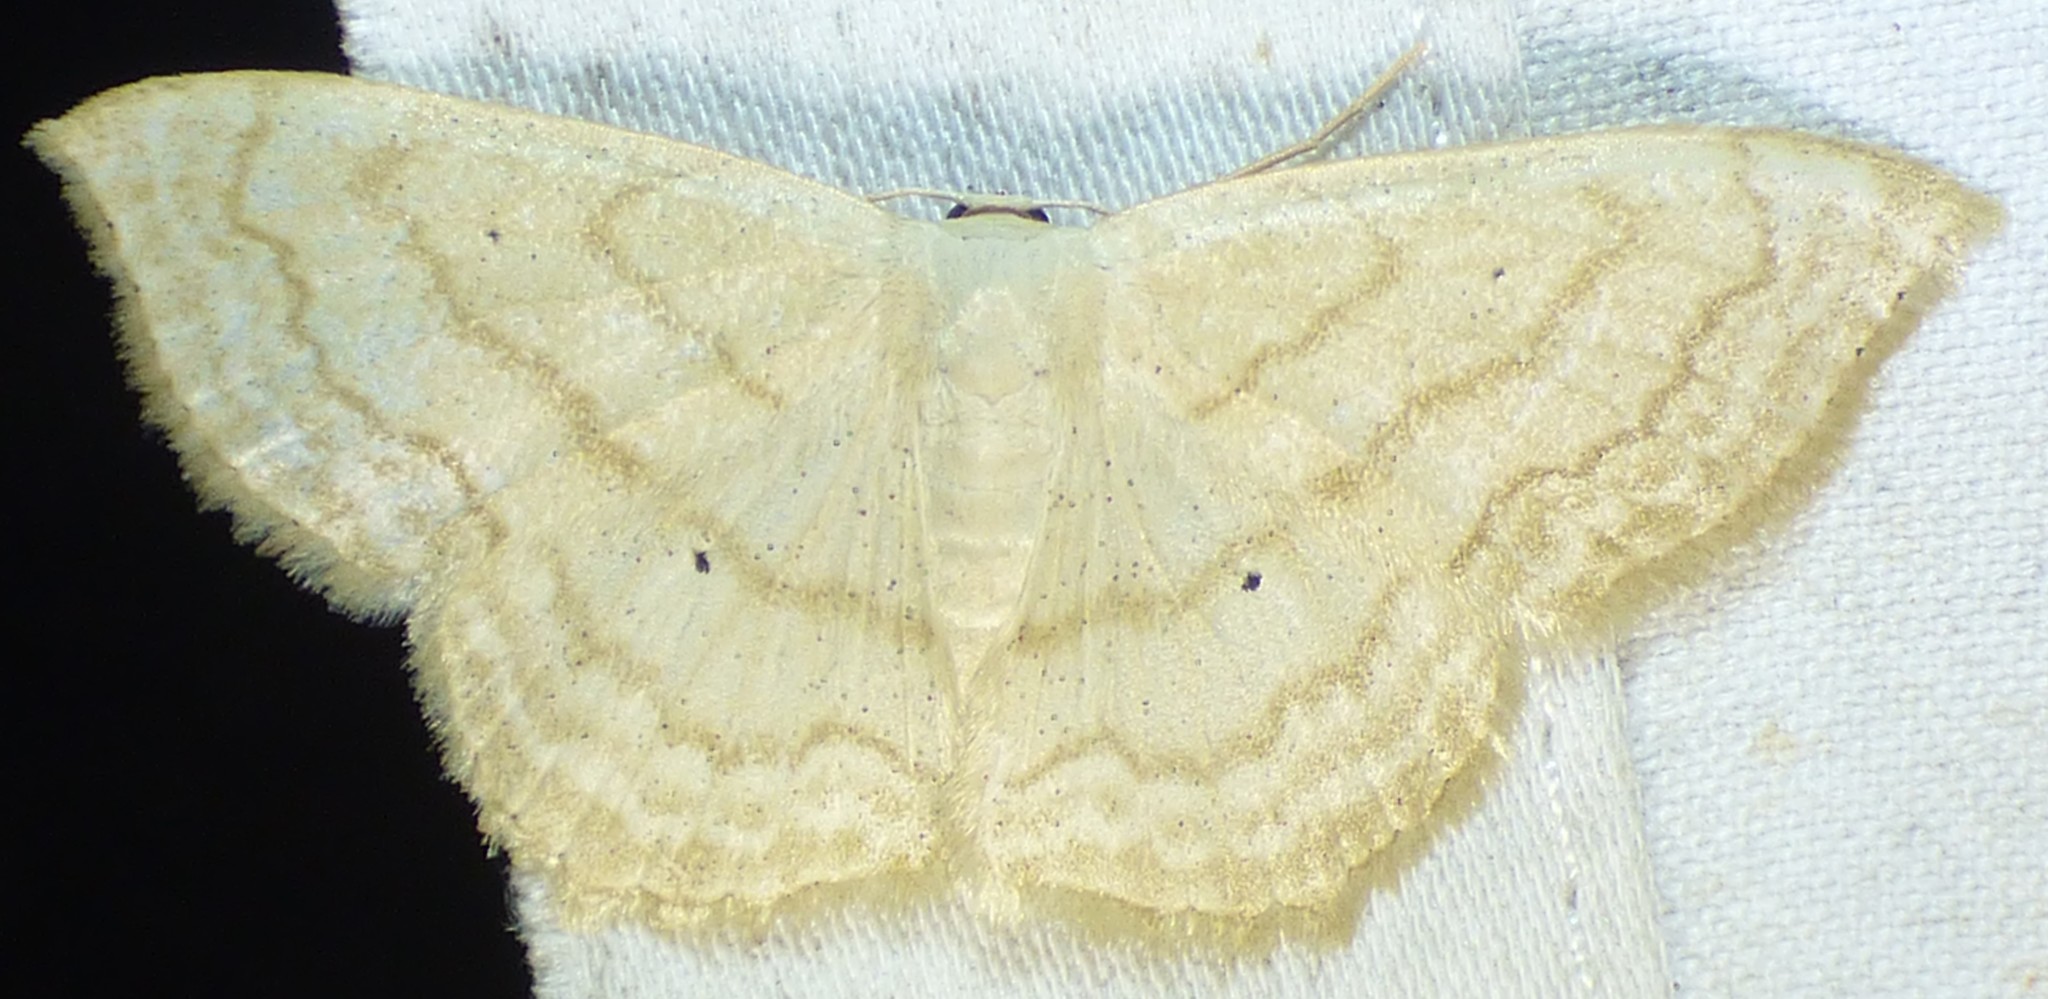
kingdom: Animalia
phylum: Arthropoda
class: Insecta
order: Lepidoptera
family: Geometridae
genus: Scopula
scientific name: Scopula limboundata
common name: Large lace border
